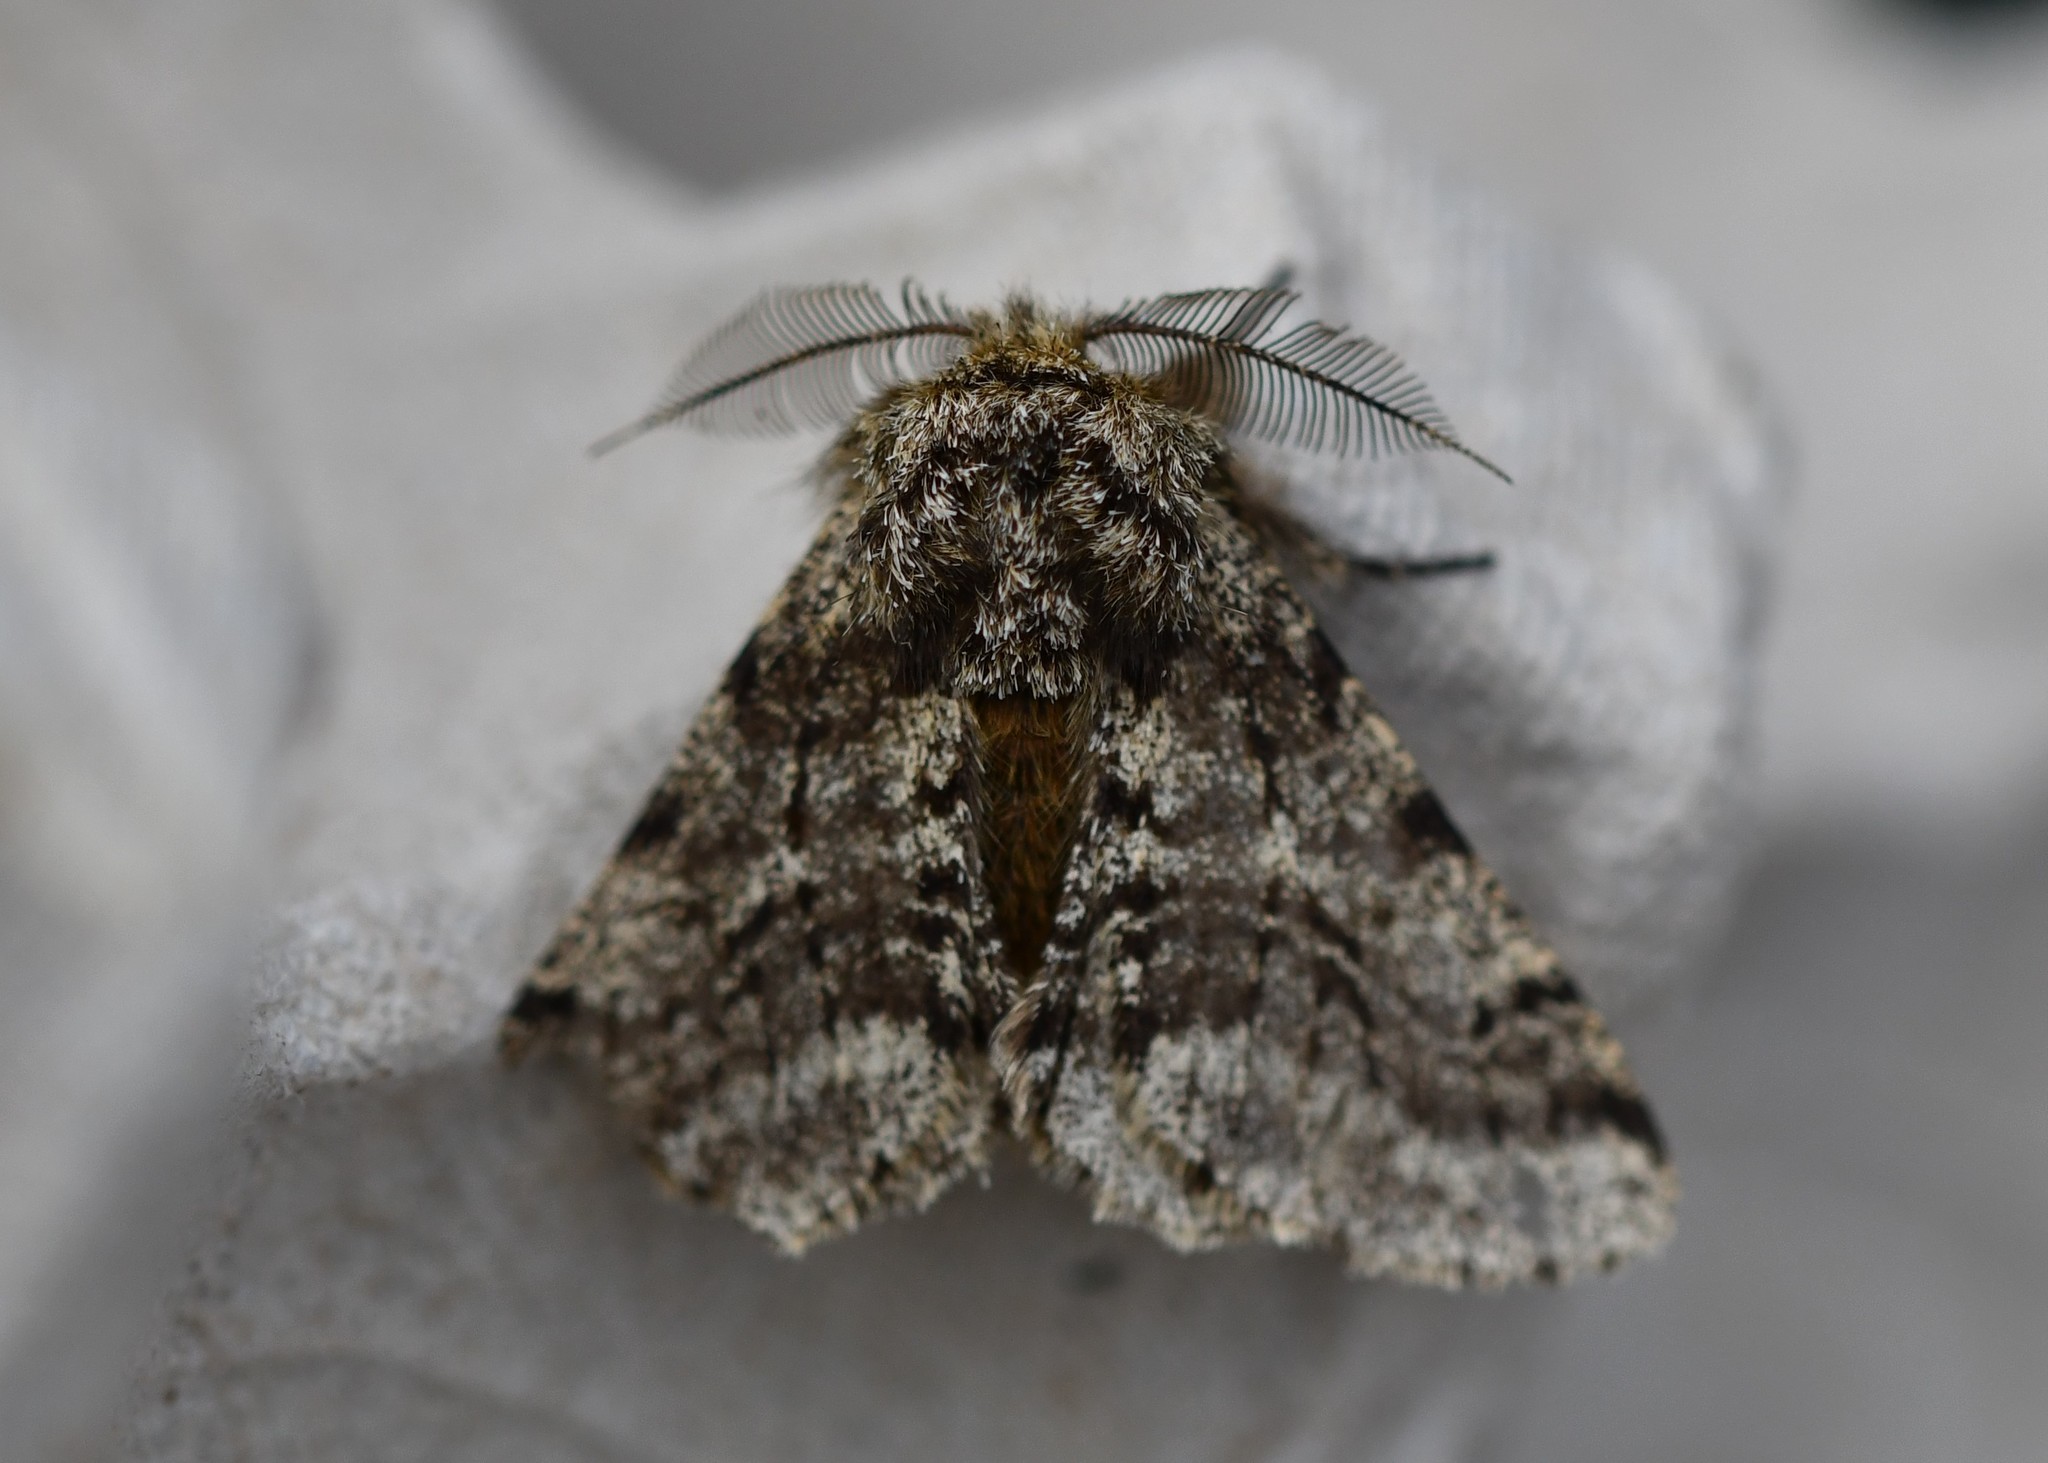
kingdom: Animalia
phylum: Arthropoda
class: Insecta
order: Lepidoptera
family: Geometridae
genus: Lycia
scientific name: Lycia hirtaria
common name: Brindled beauty
